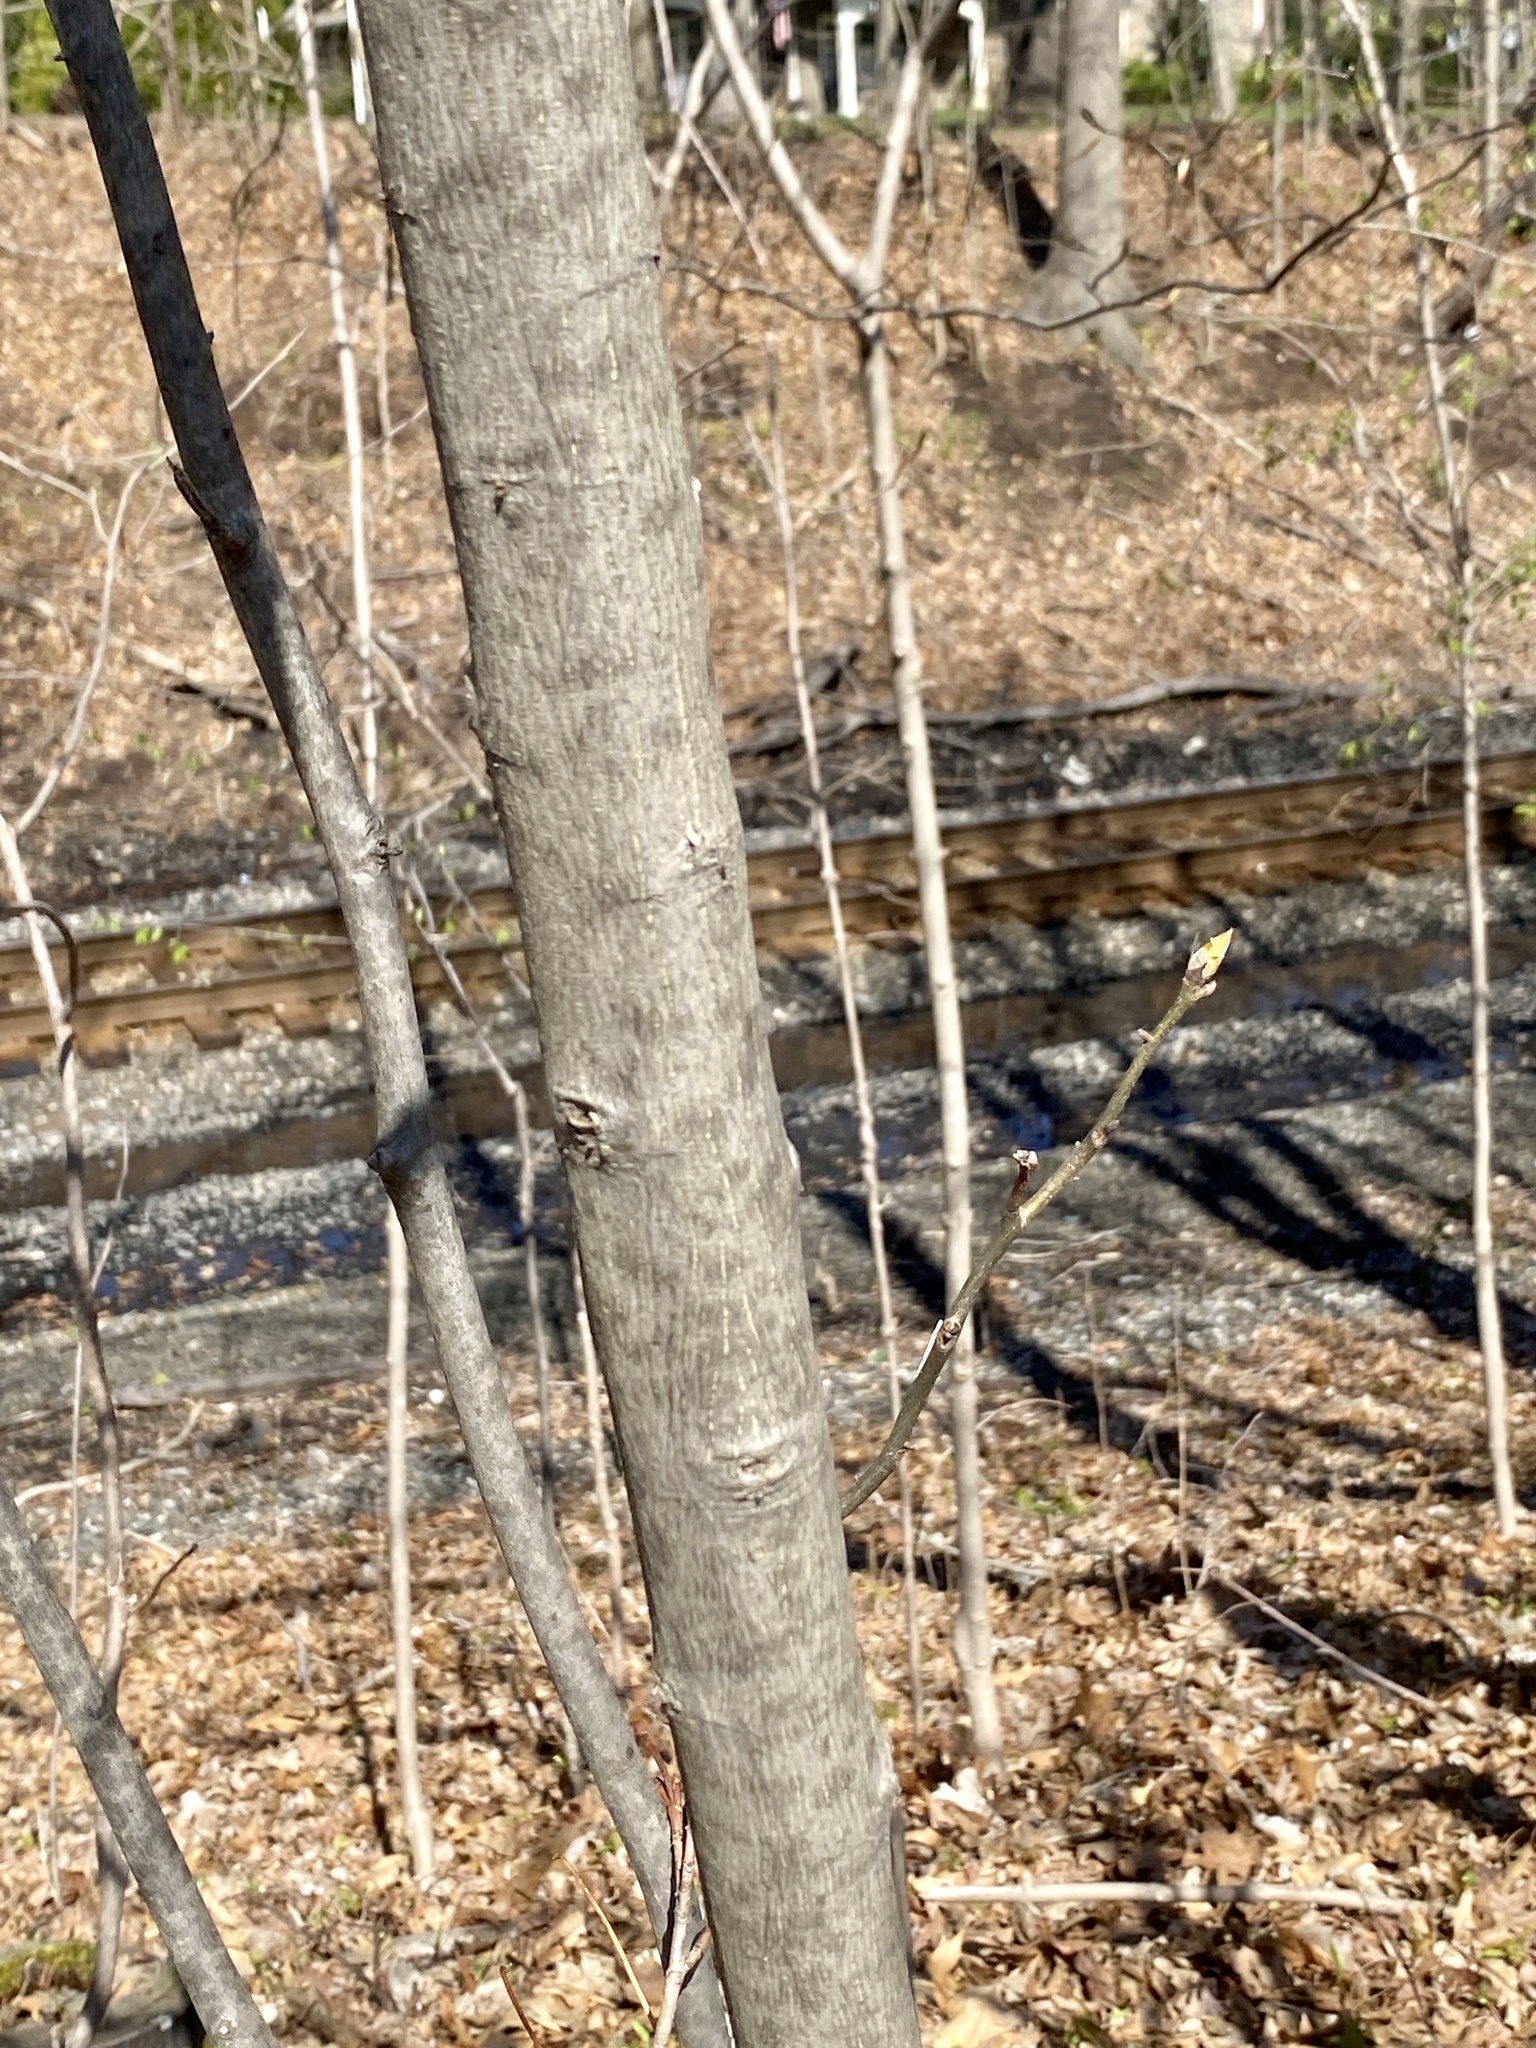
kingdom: Plantae
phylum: Tracheophyta
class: Magnoliopsida
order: Fagales
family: Juglandaceae
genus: Carya
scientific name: Carya ovata
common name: Shagbark hickory
